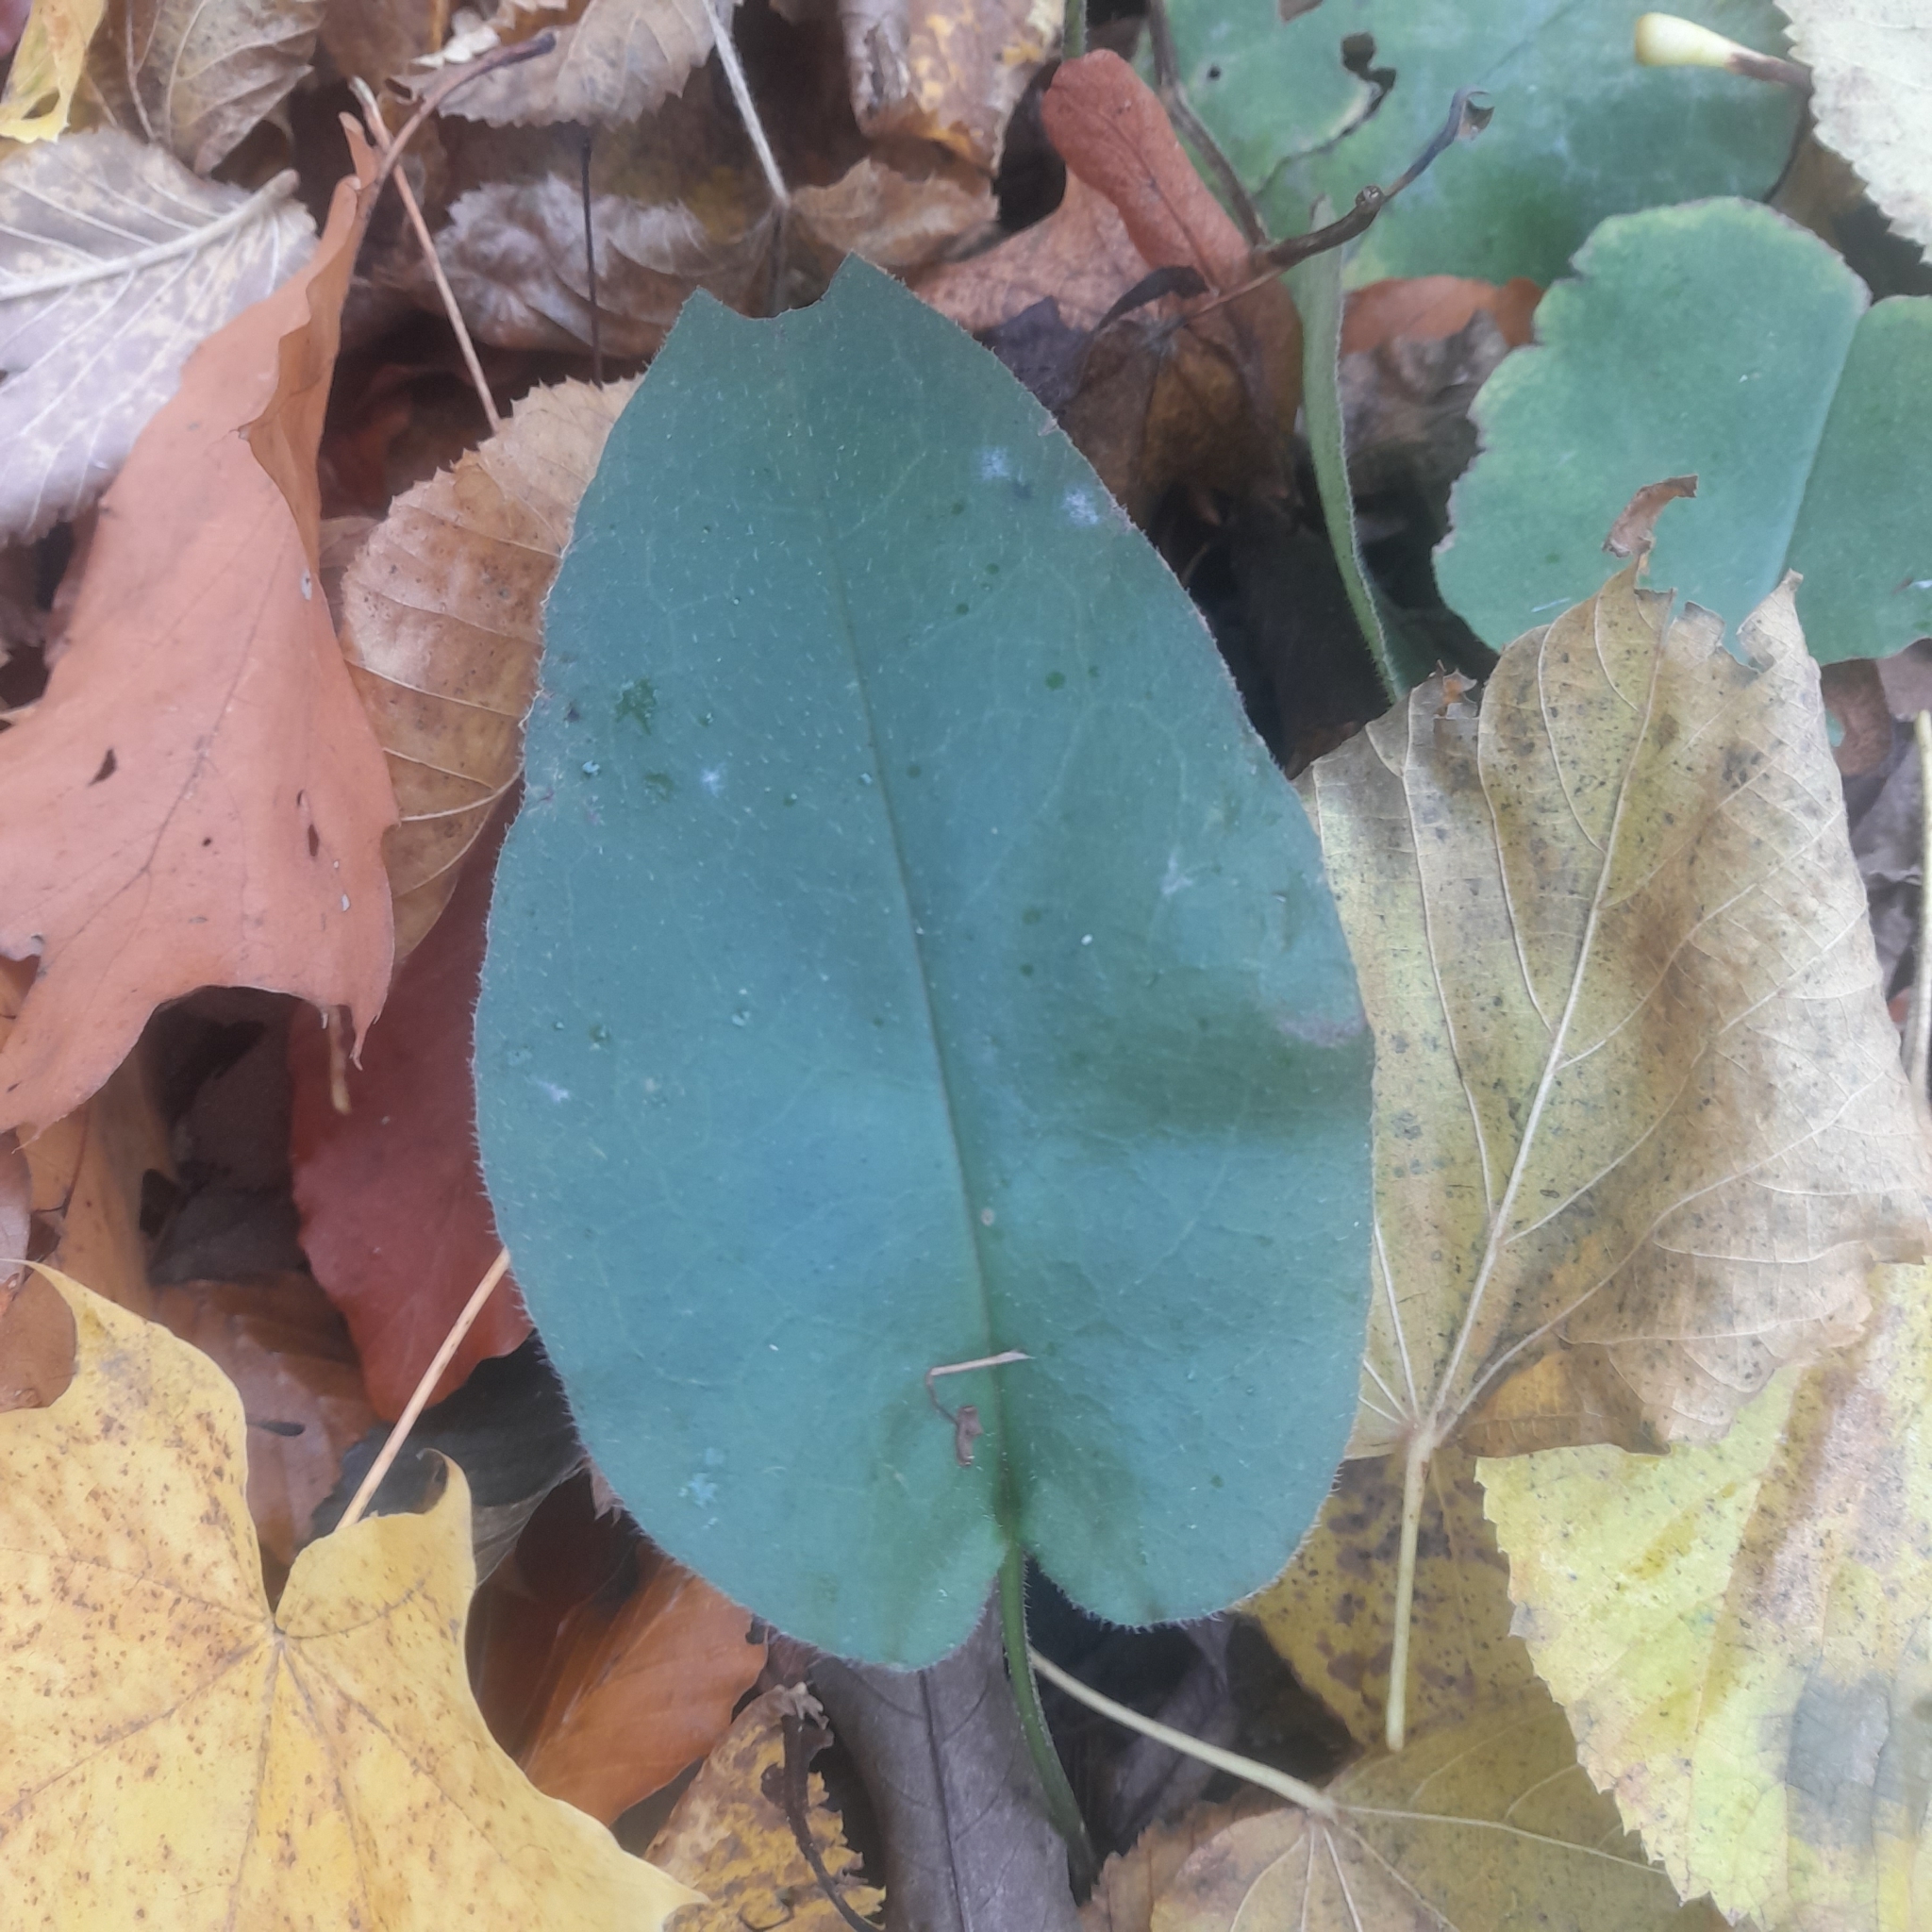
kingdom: Plantae
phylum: Tracheophyta
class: Magnoliopsida
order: Boraginales
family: Boraginaceae
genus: Pulmonaria
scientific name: Pulmonaria obscura
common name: Suffolk lungwort
